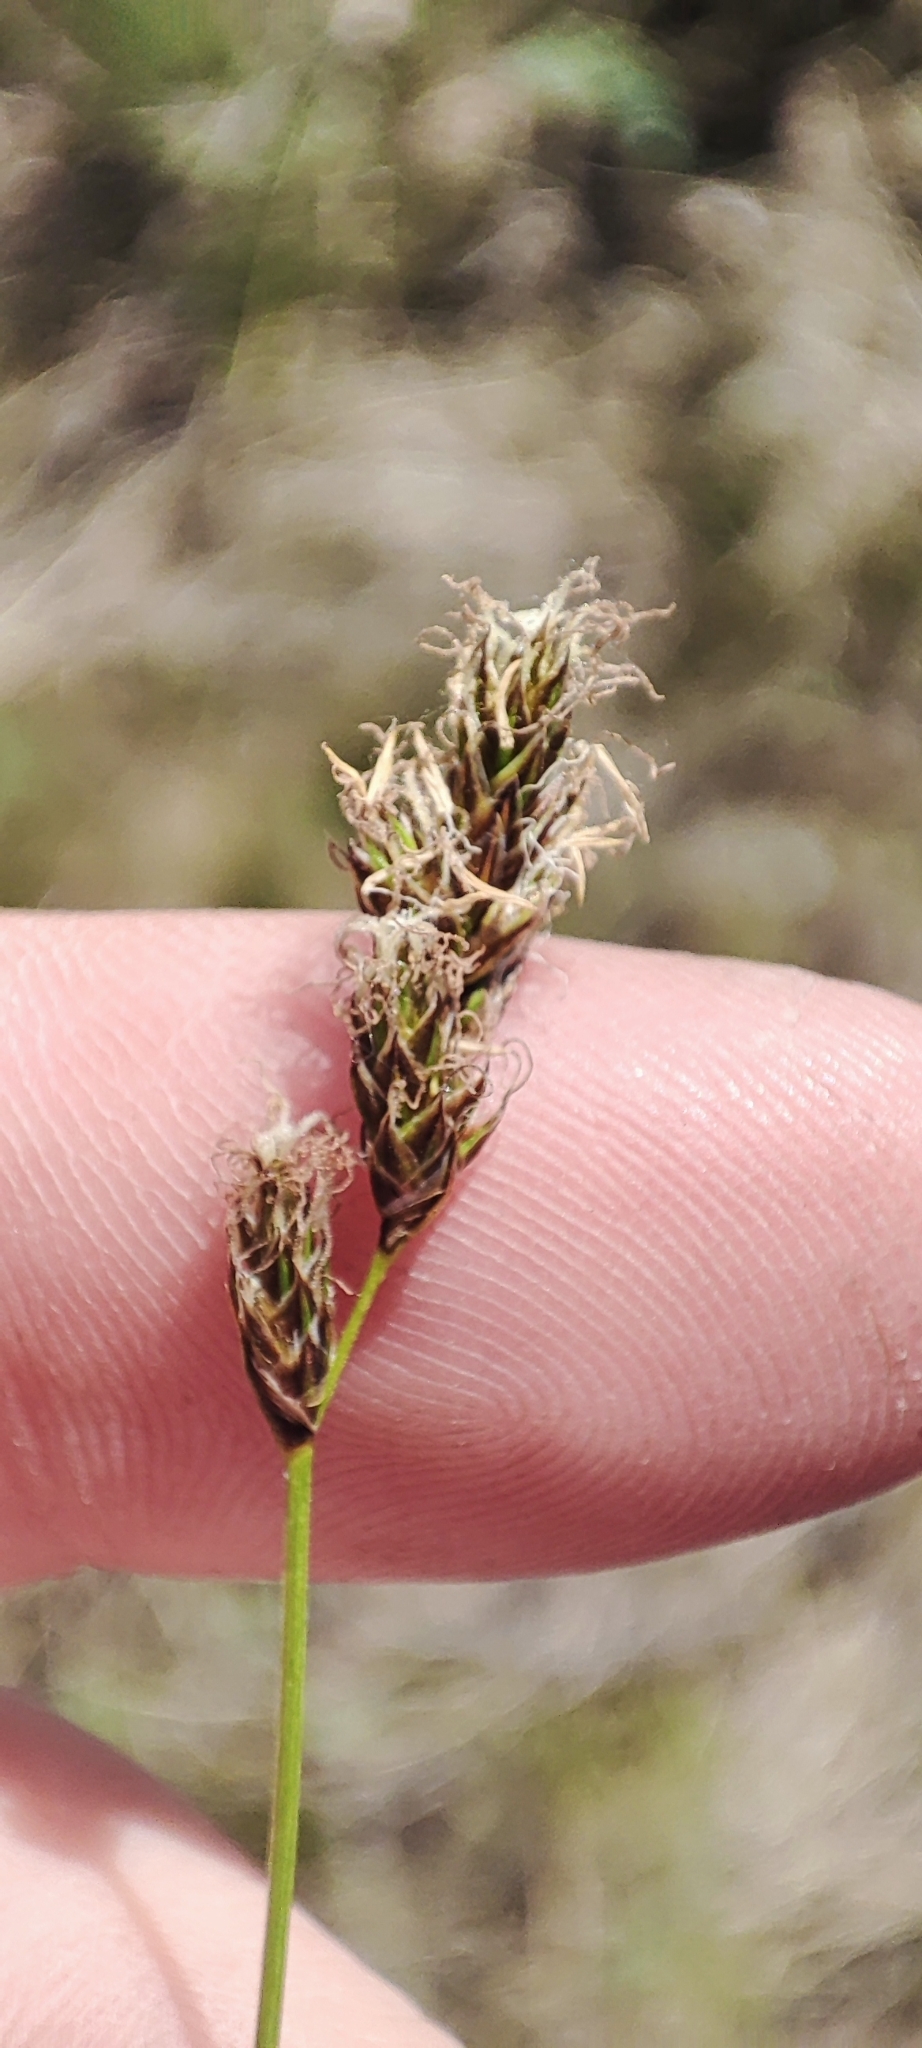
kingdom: Plantae
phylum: Tracheophyta
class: Liliopsida
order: Poales
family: Cyperaceae
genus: Carex
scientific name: Carex praecox
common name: Early sedge
